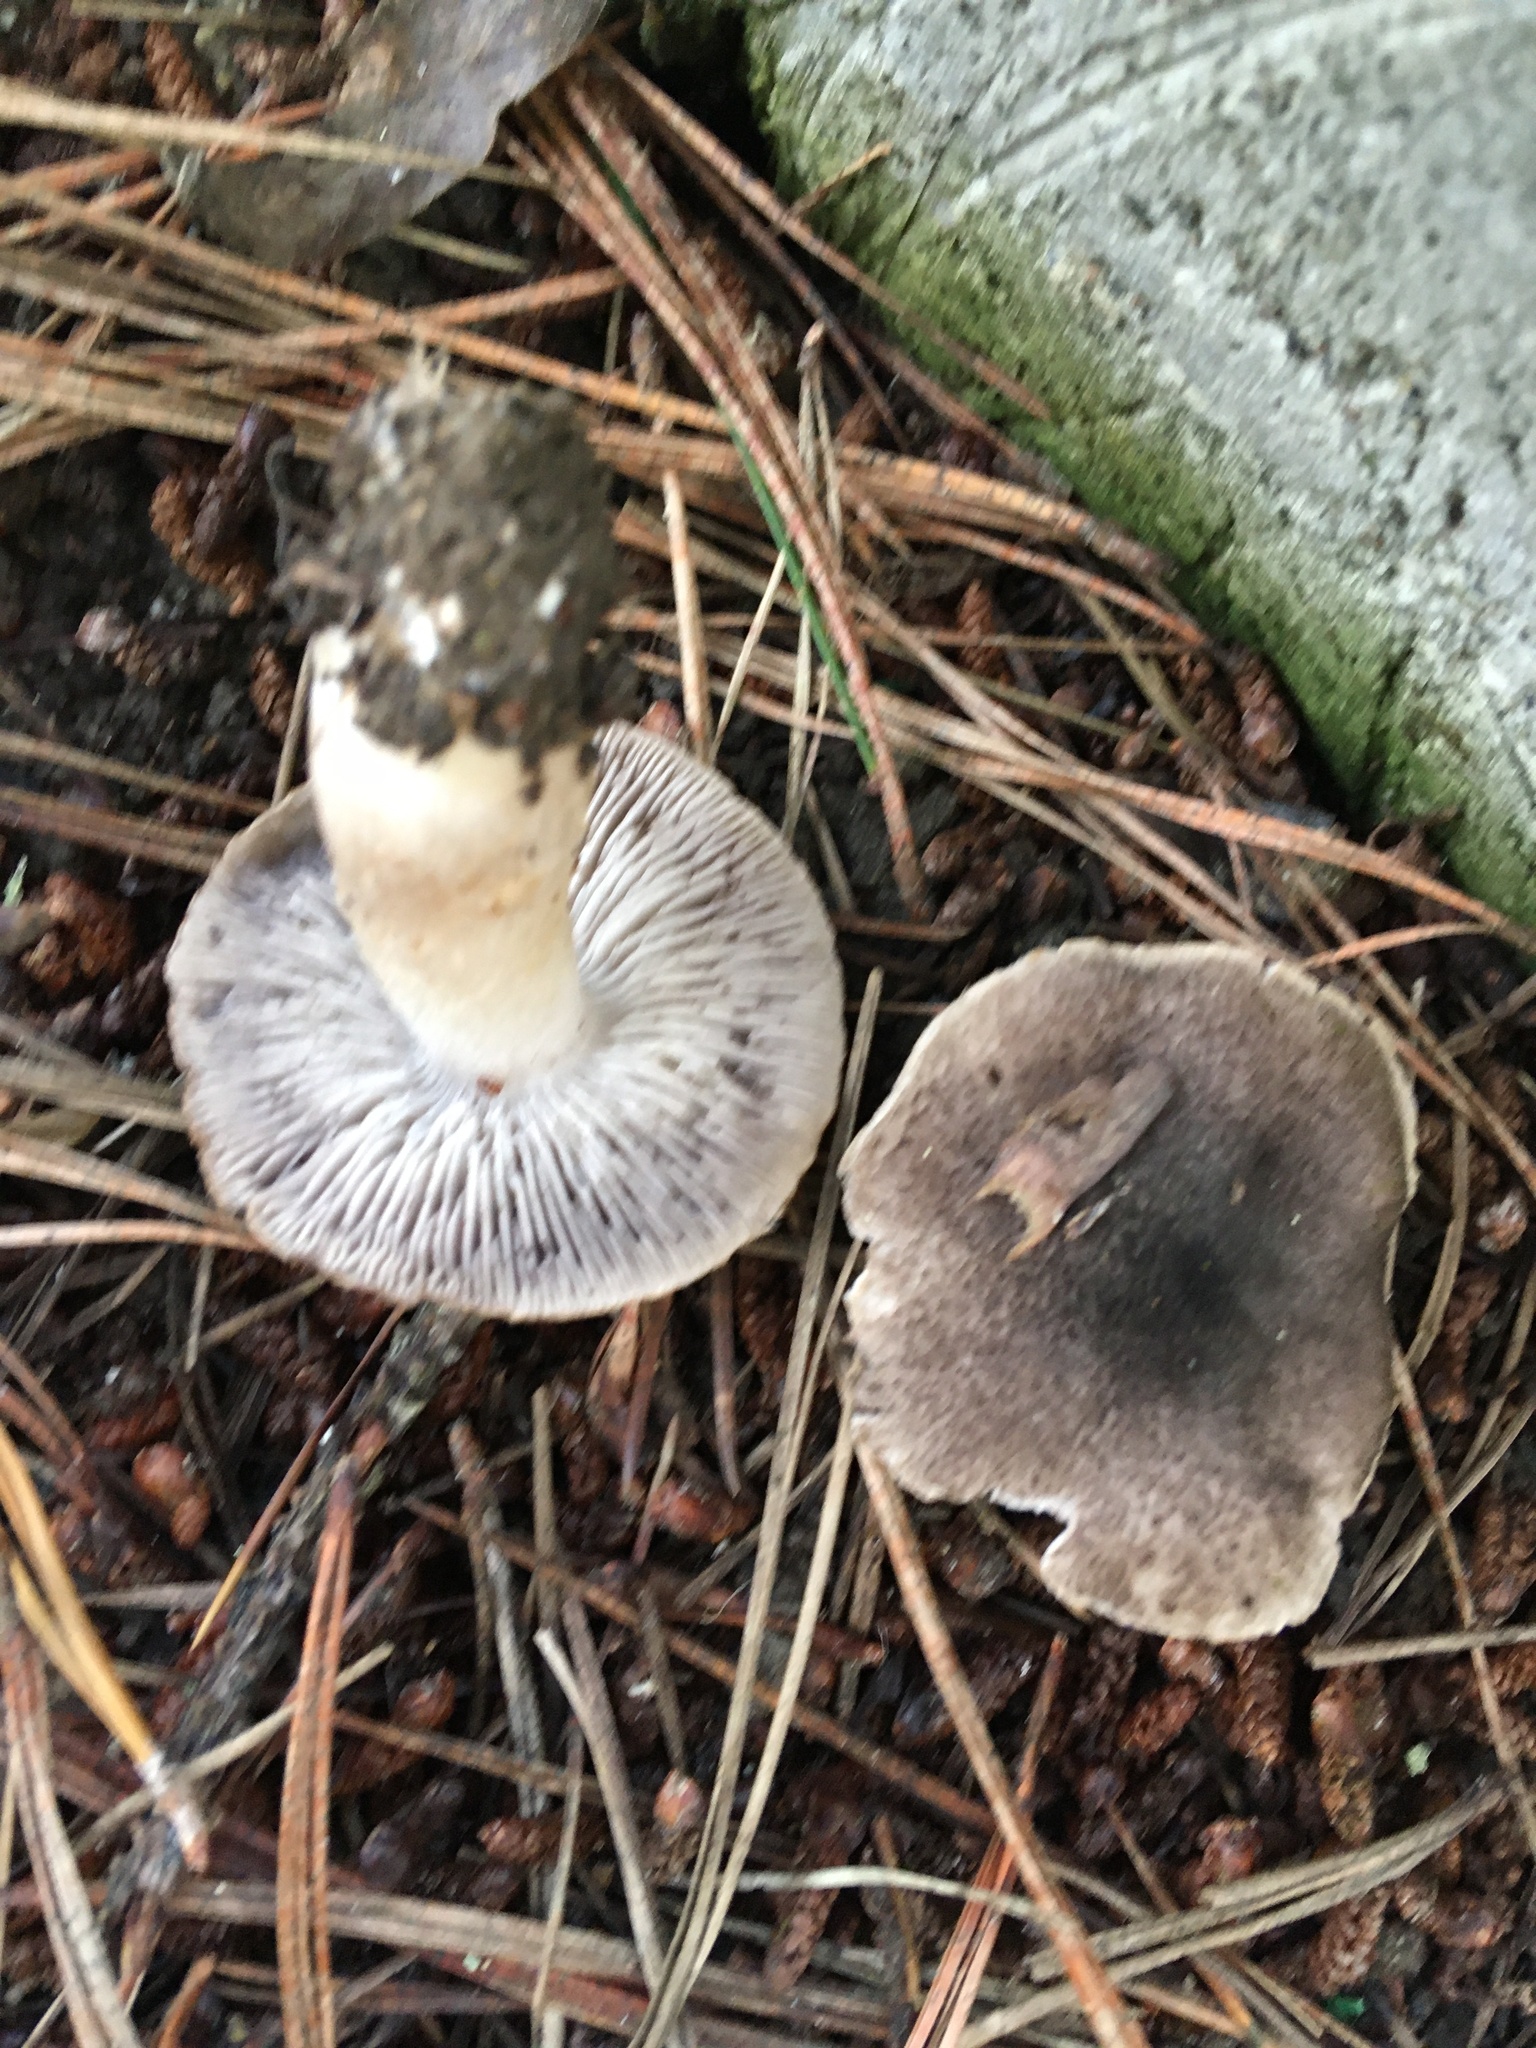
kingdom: Fungi
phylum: Basidiomycota
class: Agaricomycetes
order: Agaricales
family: Tricholomataceae
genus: Tricholoma
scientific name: Tricholoma terreum
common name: Grey knight
